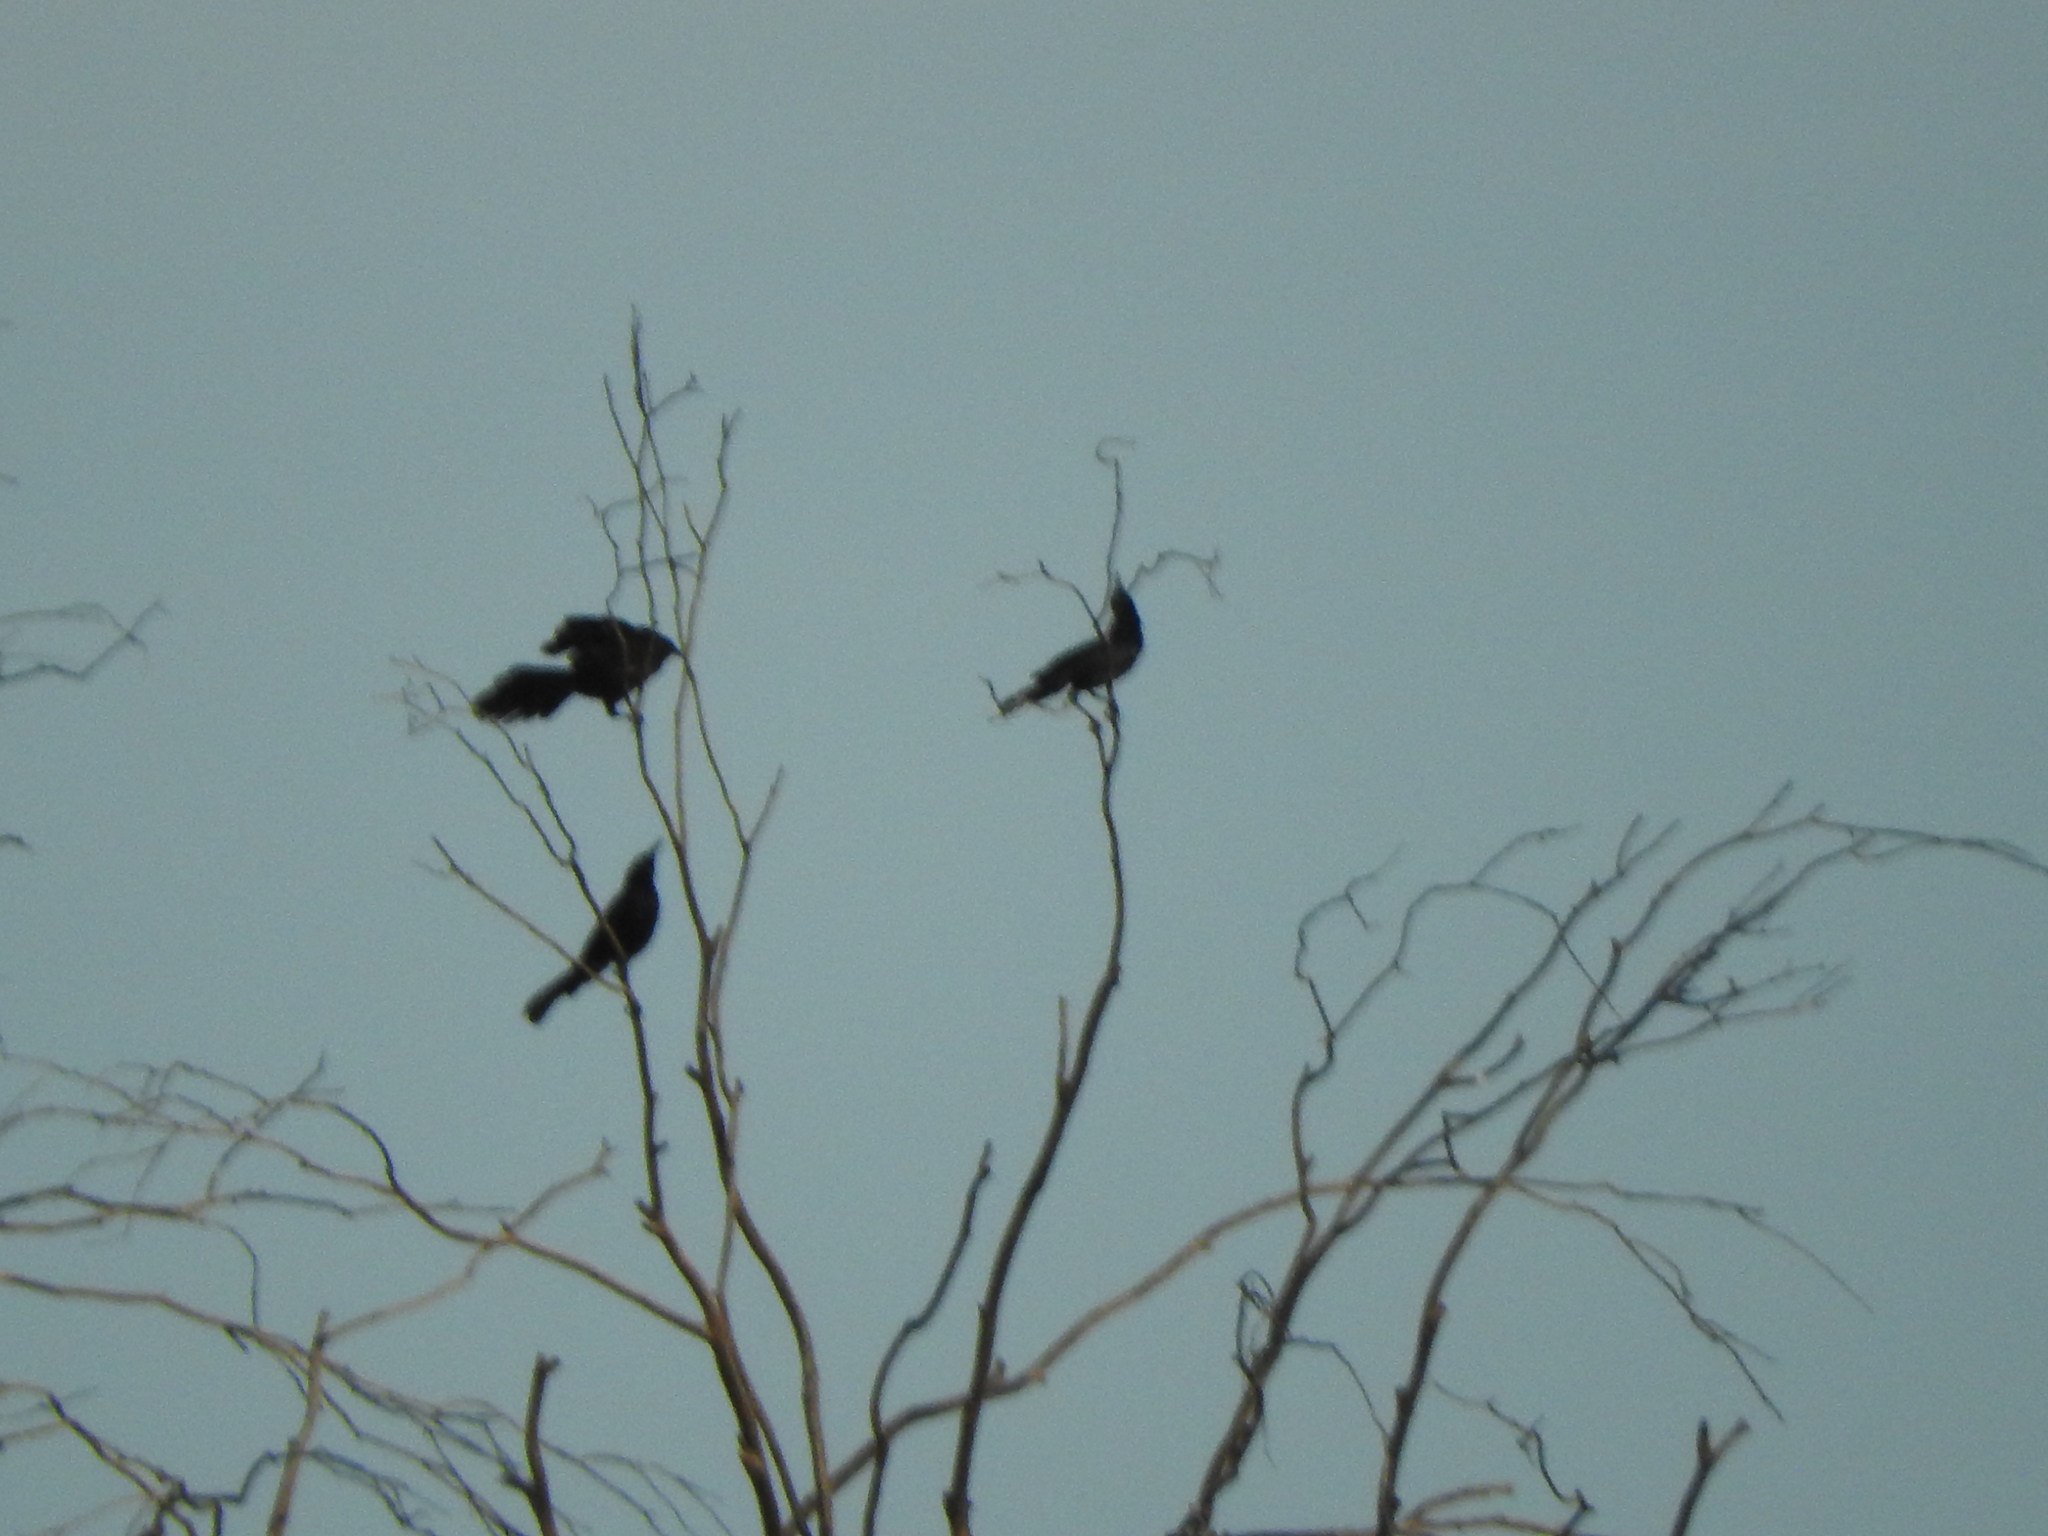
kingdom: Animalia
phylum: Chordata
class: Aves
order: Passeriformes
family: Icteridae
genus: Quiscalus
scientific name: Quiscalus mexicanus
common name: Great-tailed grackle
